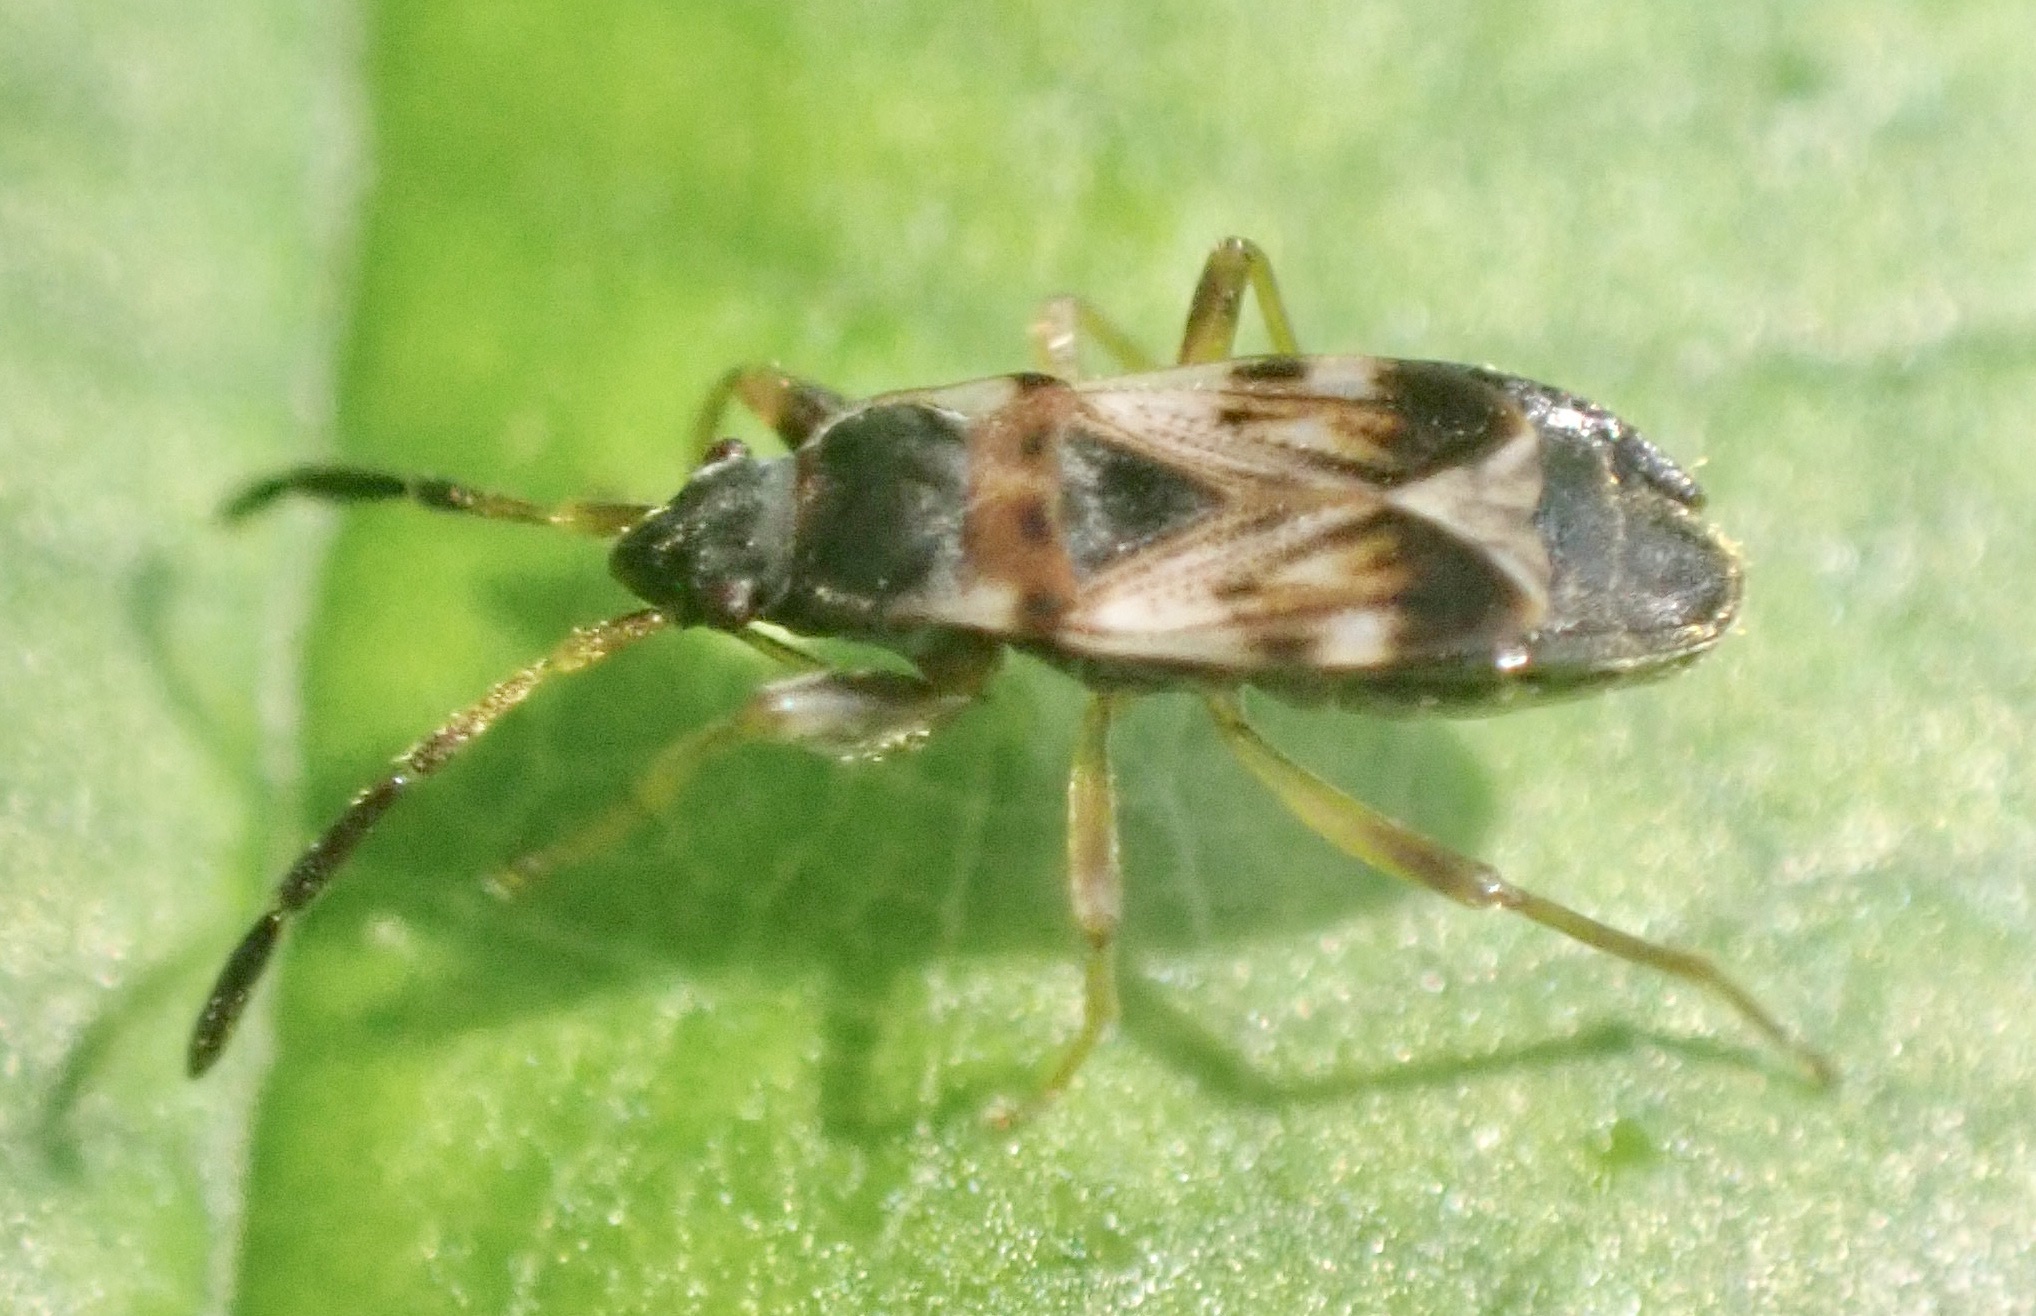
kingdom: Animalia
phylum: Arthropoda
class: Insecta
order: Hemiptera
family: Rhyparochromidae
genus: Scolopostethus
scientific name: Scolopostethus thomsoni
